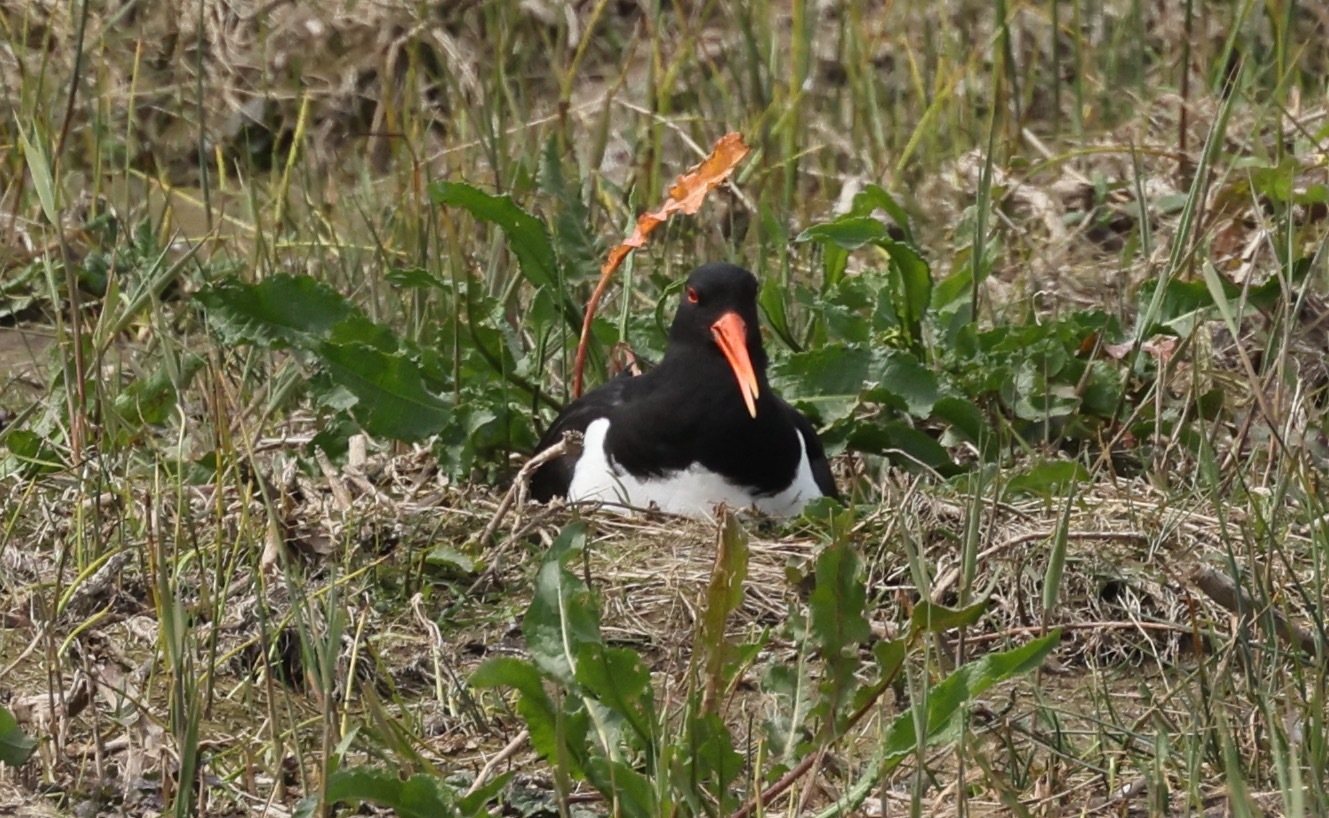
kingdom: Animalia
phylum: Chordata
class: Aves
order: Charadriiformes
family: Haematopodidae
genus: Haematopus
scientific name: Haematopus ostralegus
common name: Eurasian oystercatcher
